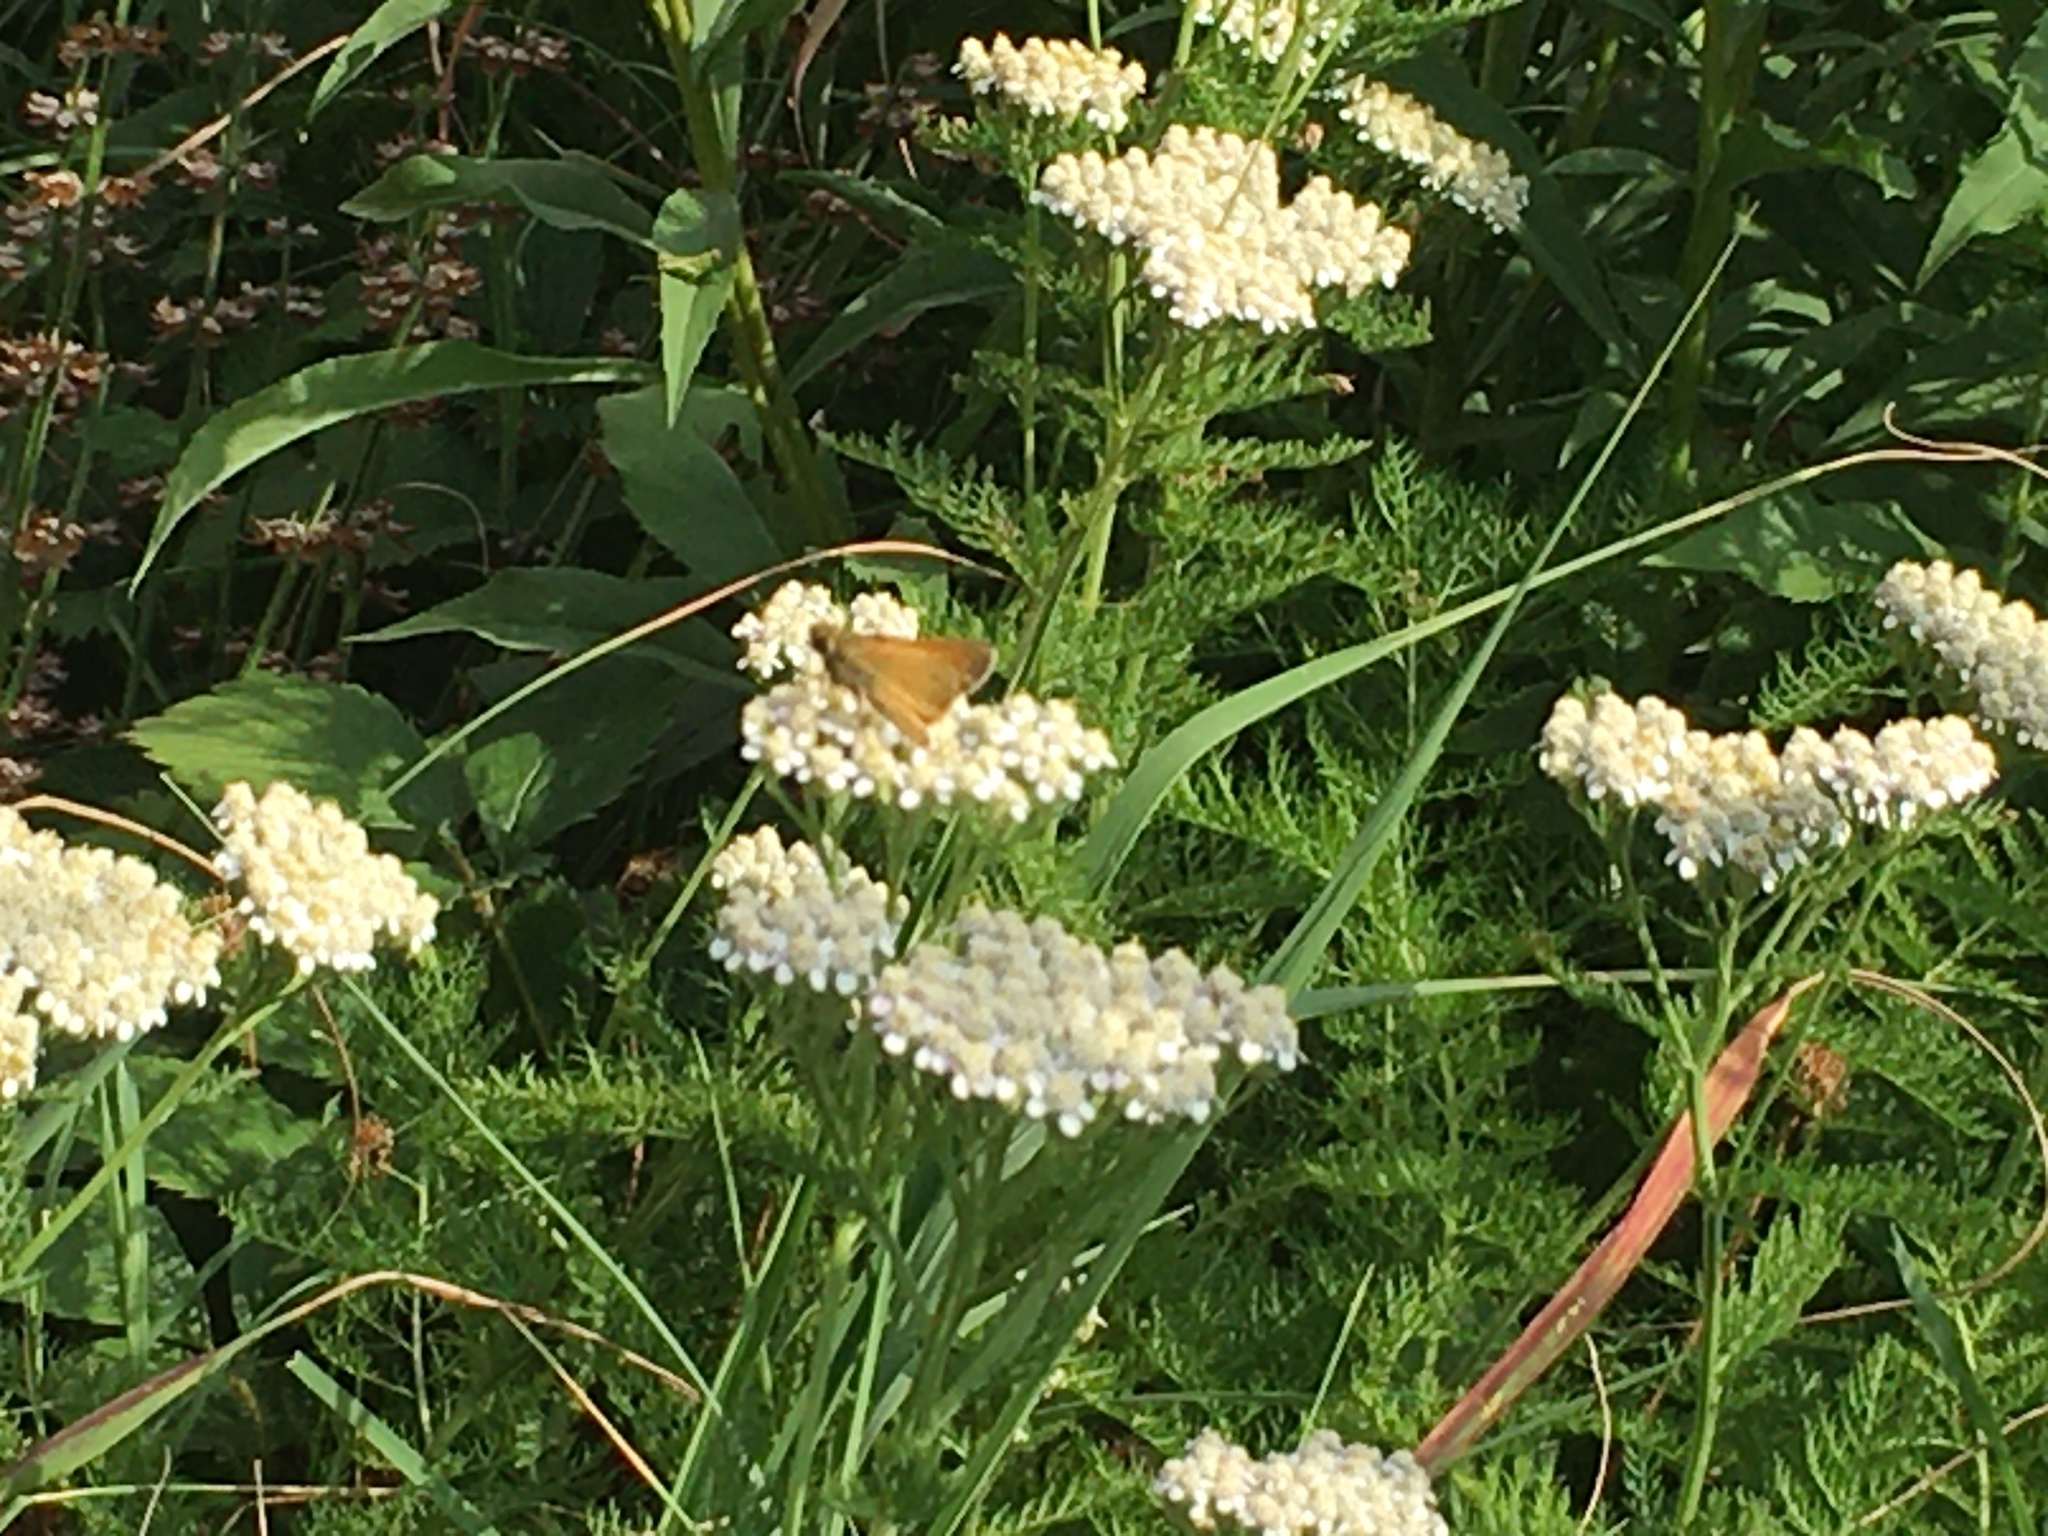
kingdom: Animalia
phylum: Arthropoda
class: Insecta
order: Lepidoptera
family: Hesperiidae
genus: Atalopedes
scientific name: Atalopedes
